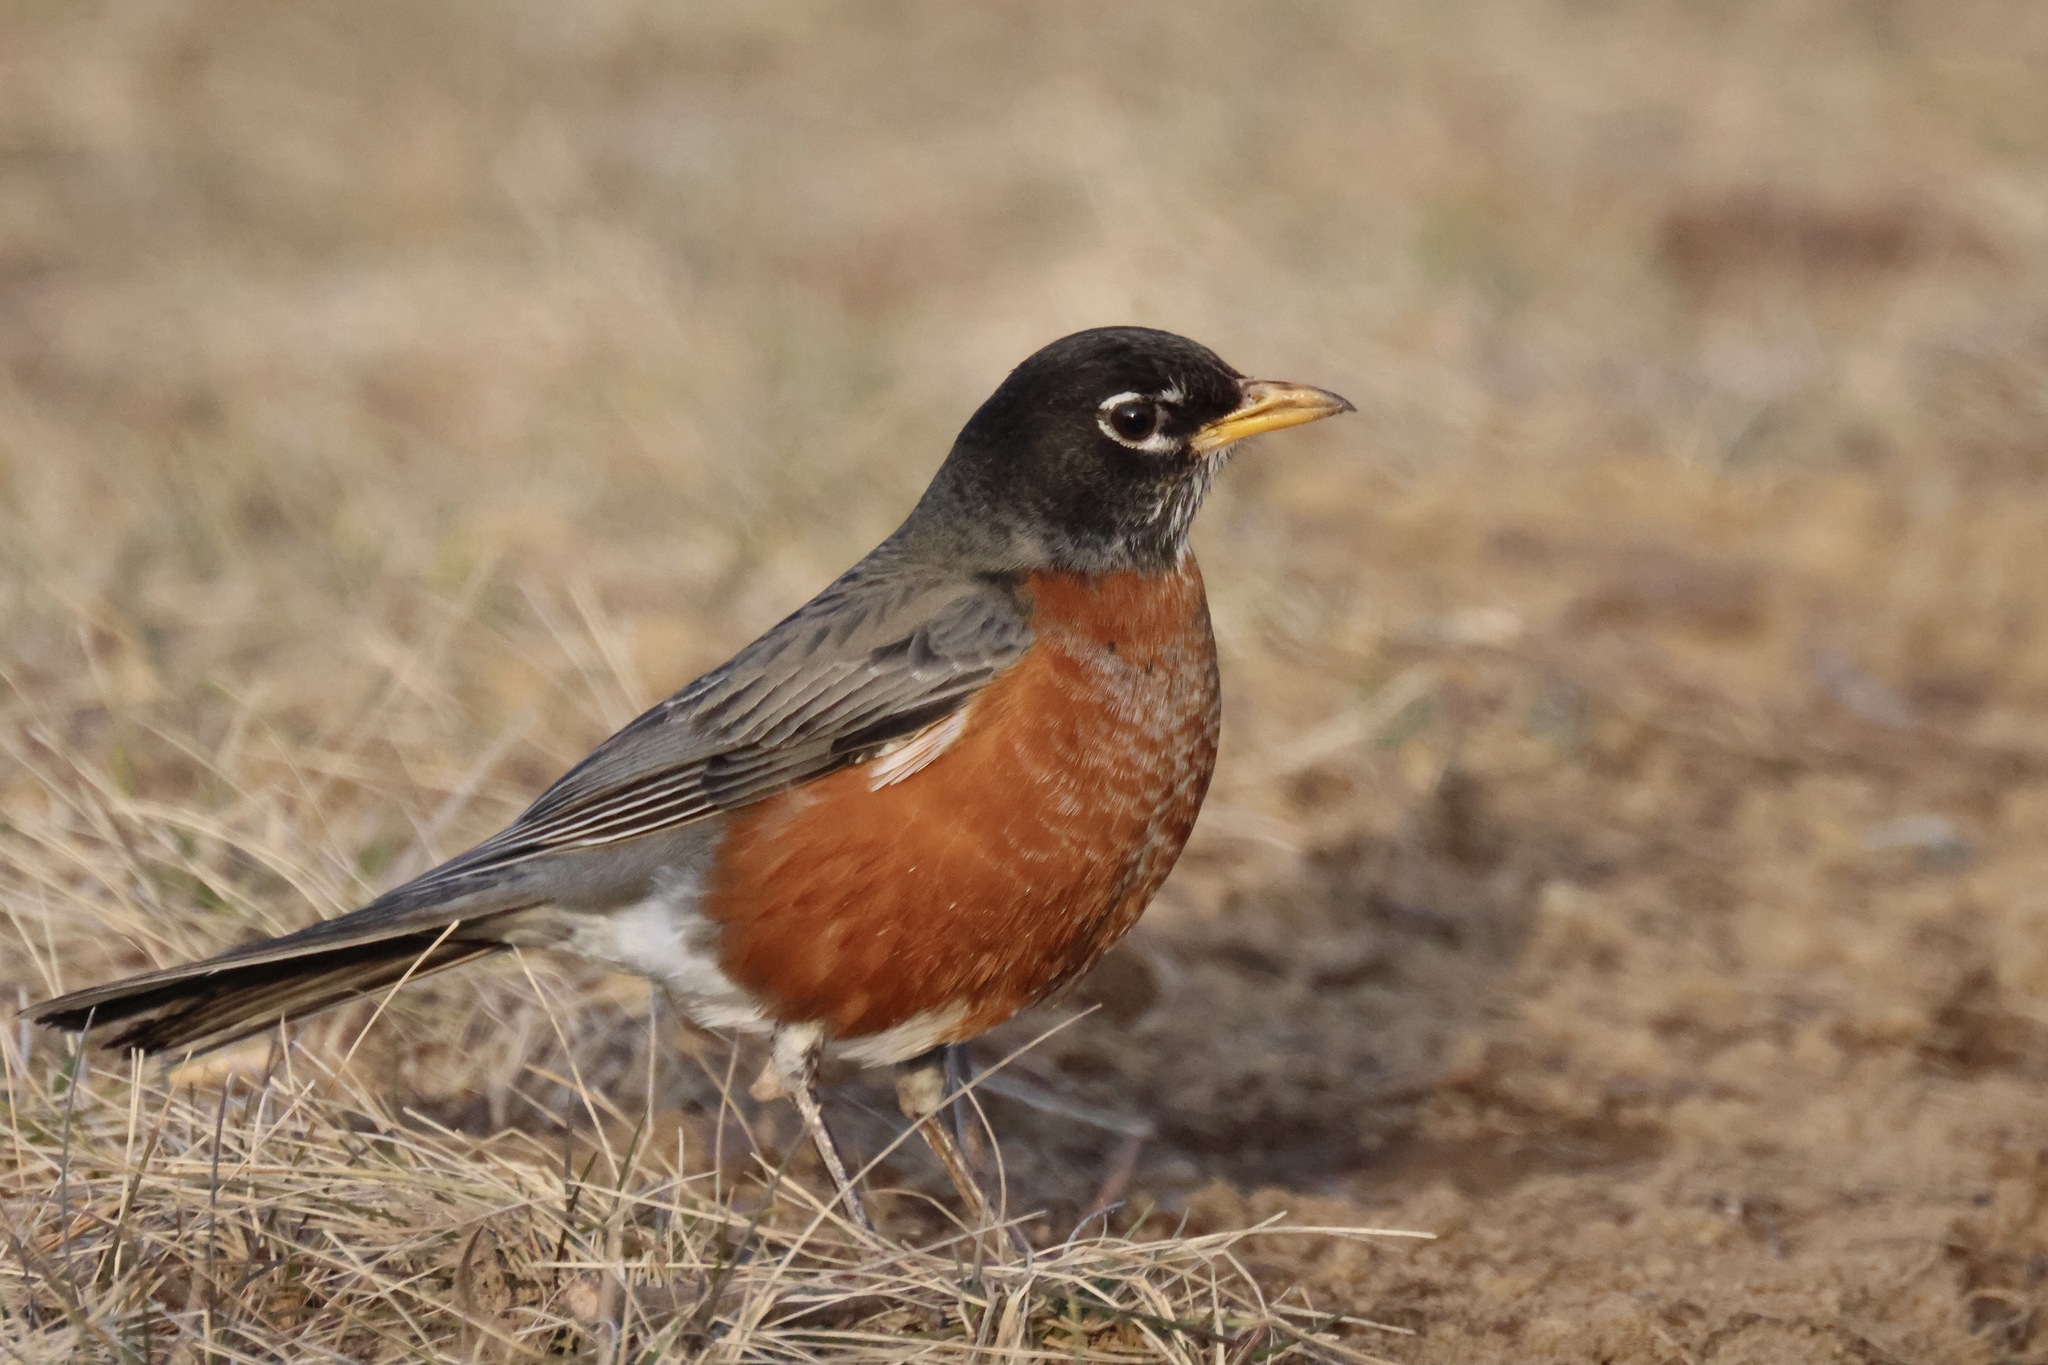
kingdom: Animalia
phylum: Chordata
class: Aves
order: Passeriformes
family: Turdidae
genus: Turdus
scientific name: Turdus migratorius
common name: American robin
